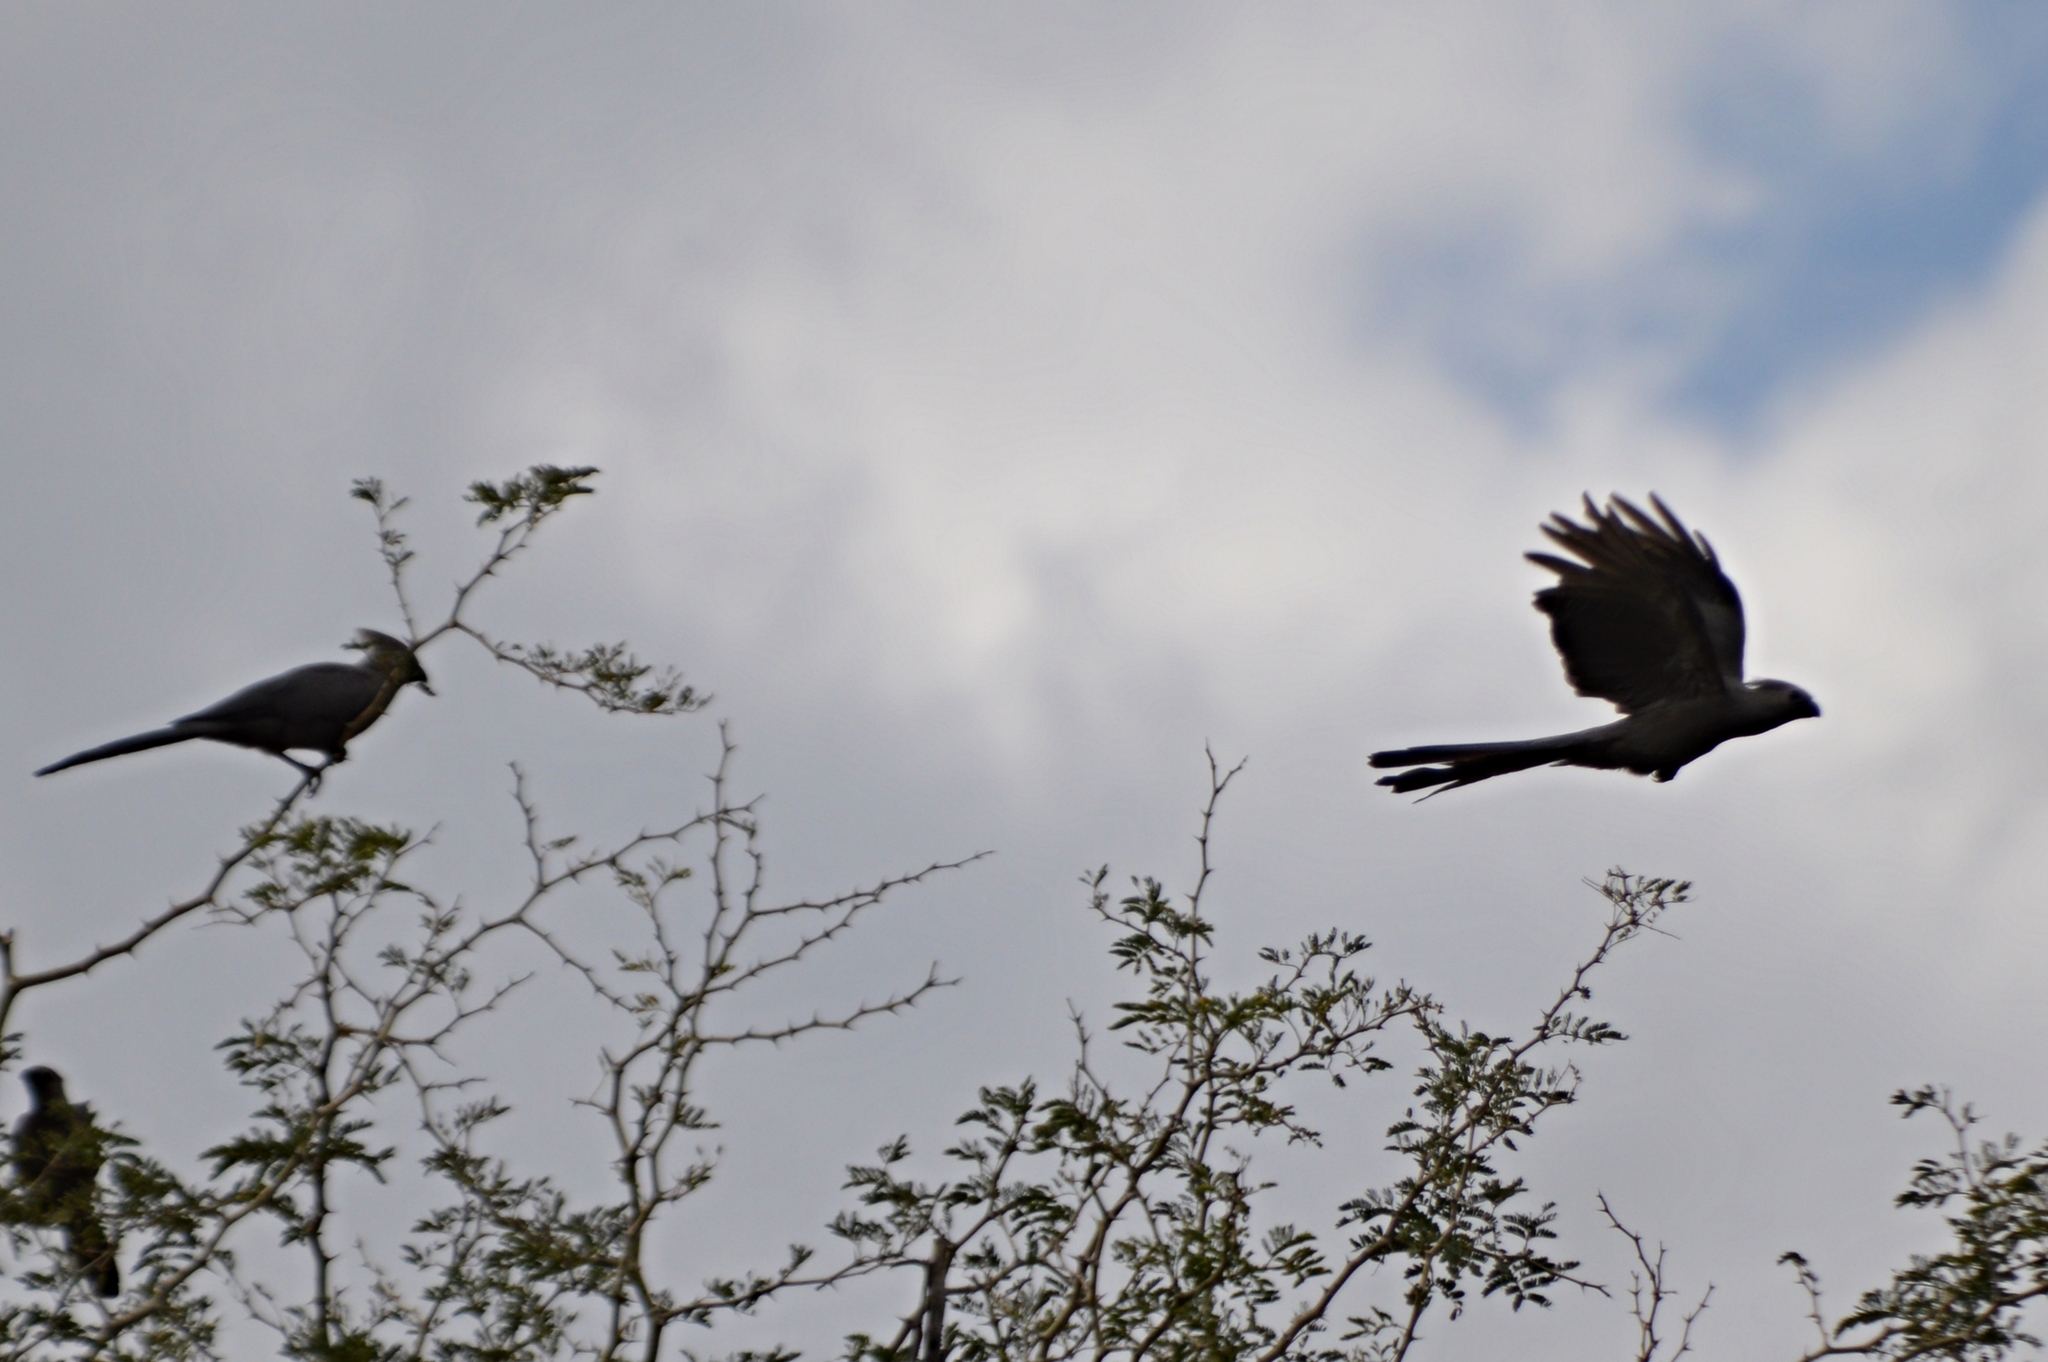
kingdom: Animalia
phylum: Chordata
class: Aves
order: Musophagiformes
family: Musophagidae
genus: Corythaixoides
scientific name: Corythaixoides concolor
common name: Grey go-away-bird
